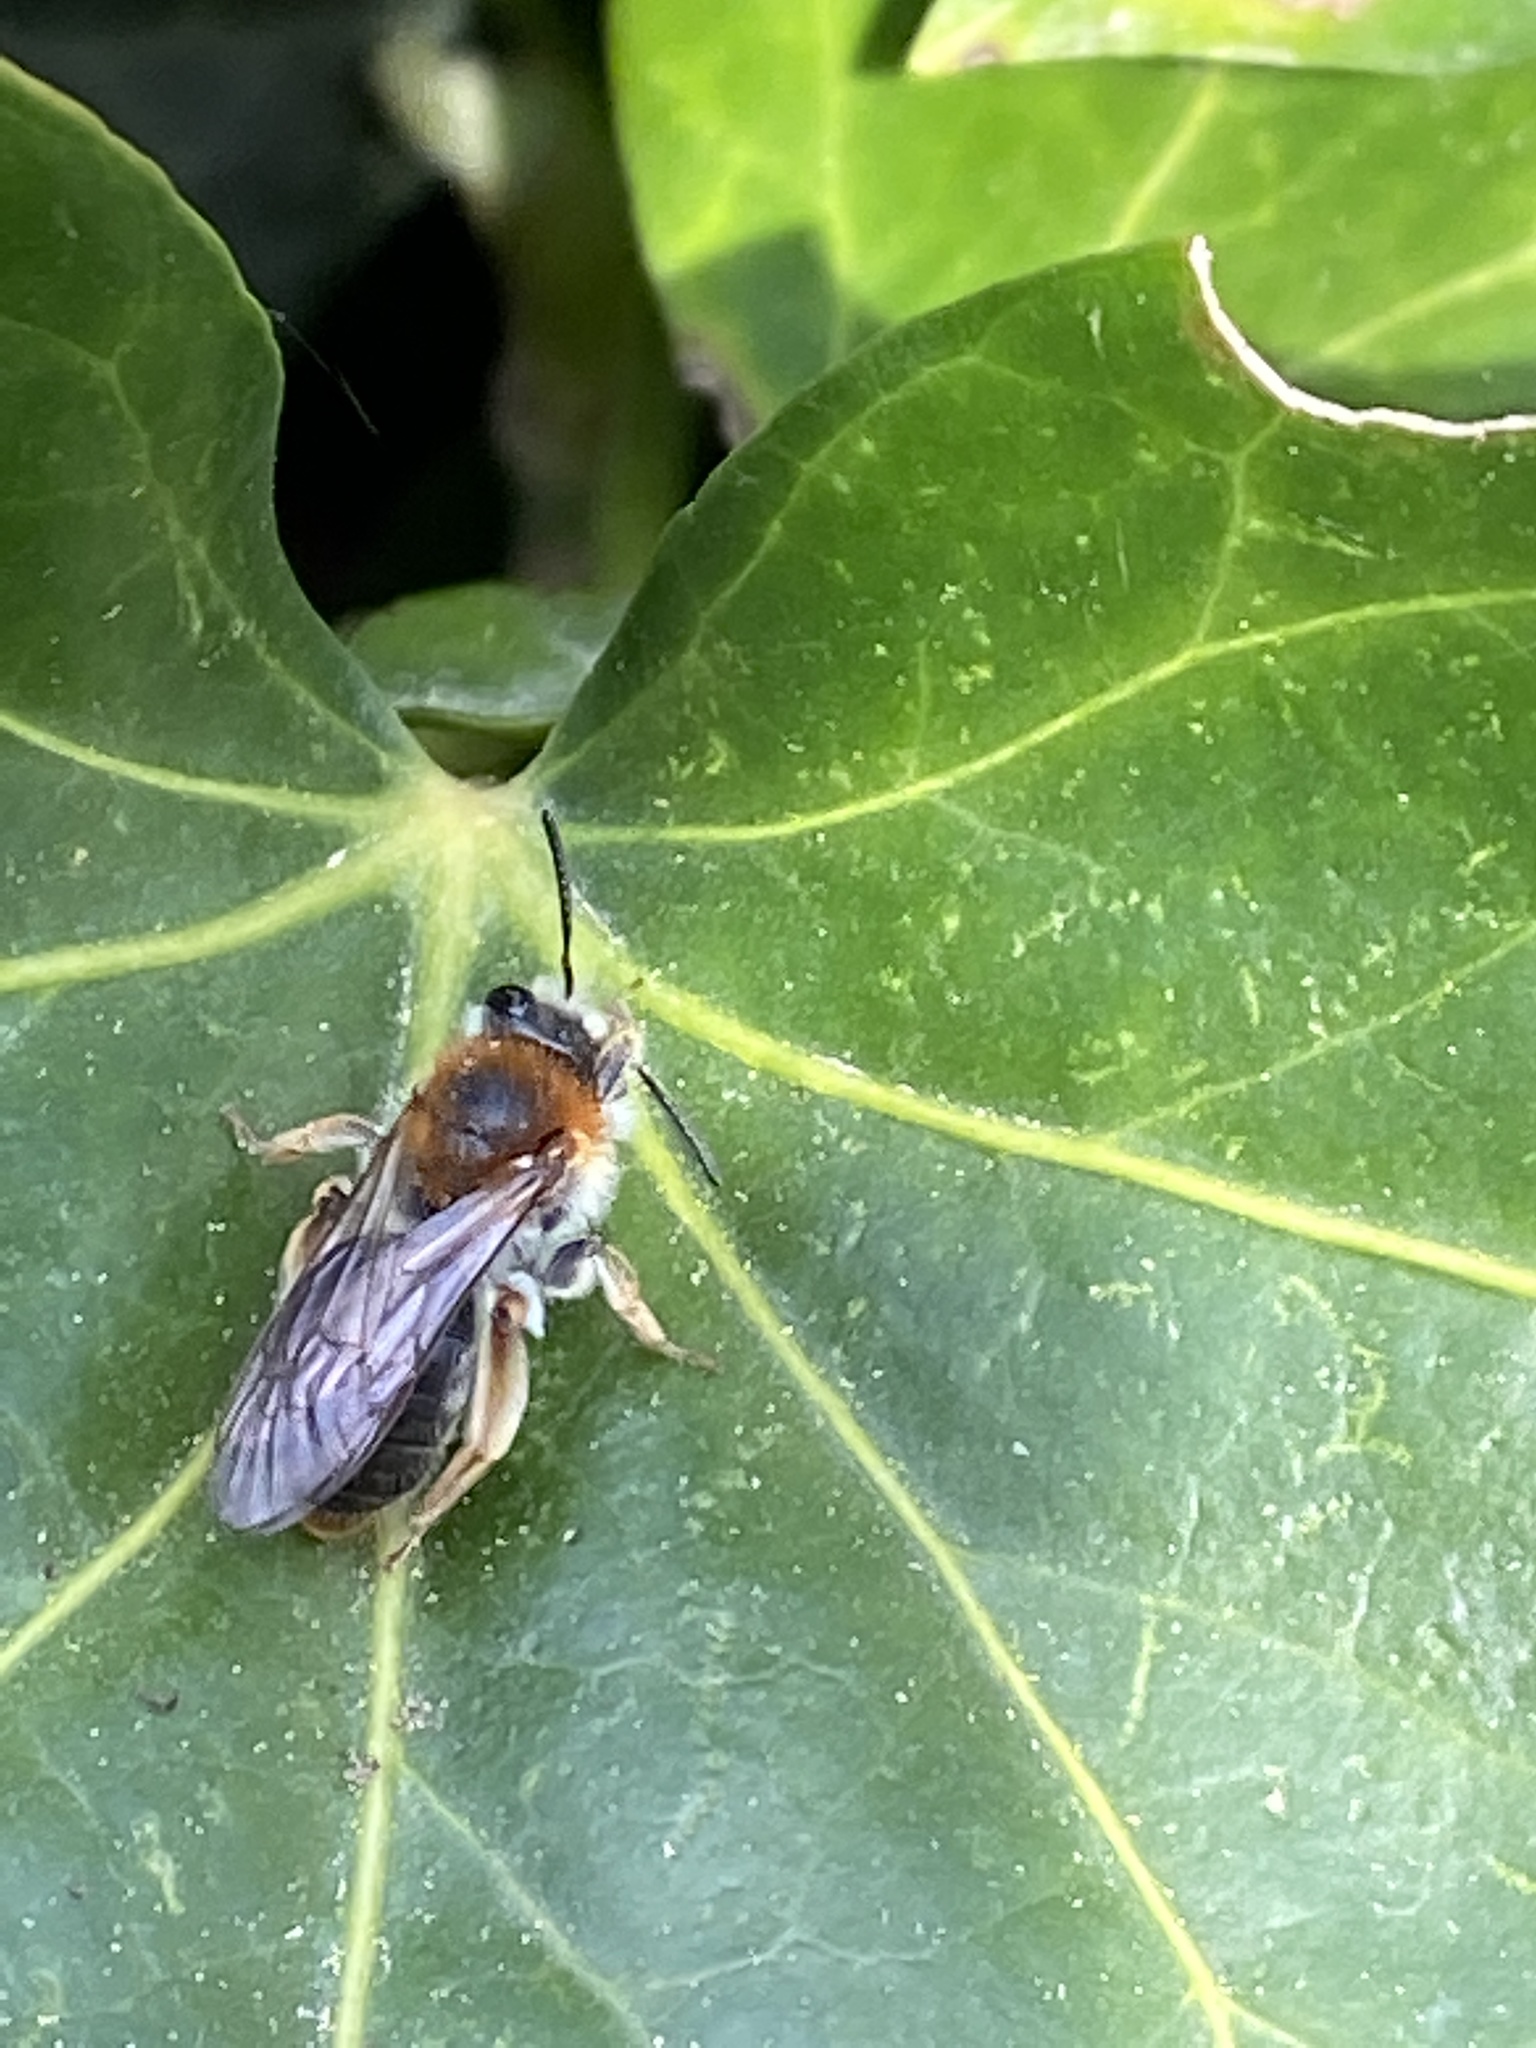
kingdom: Animalia
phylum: Arthropoda
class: Insecta
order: Hymenoptera
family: Andrenidae
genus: Andrena
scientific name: Andrena haemorrhoa
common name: Early mining bee
